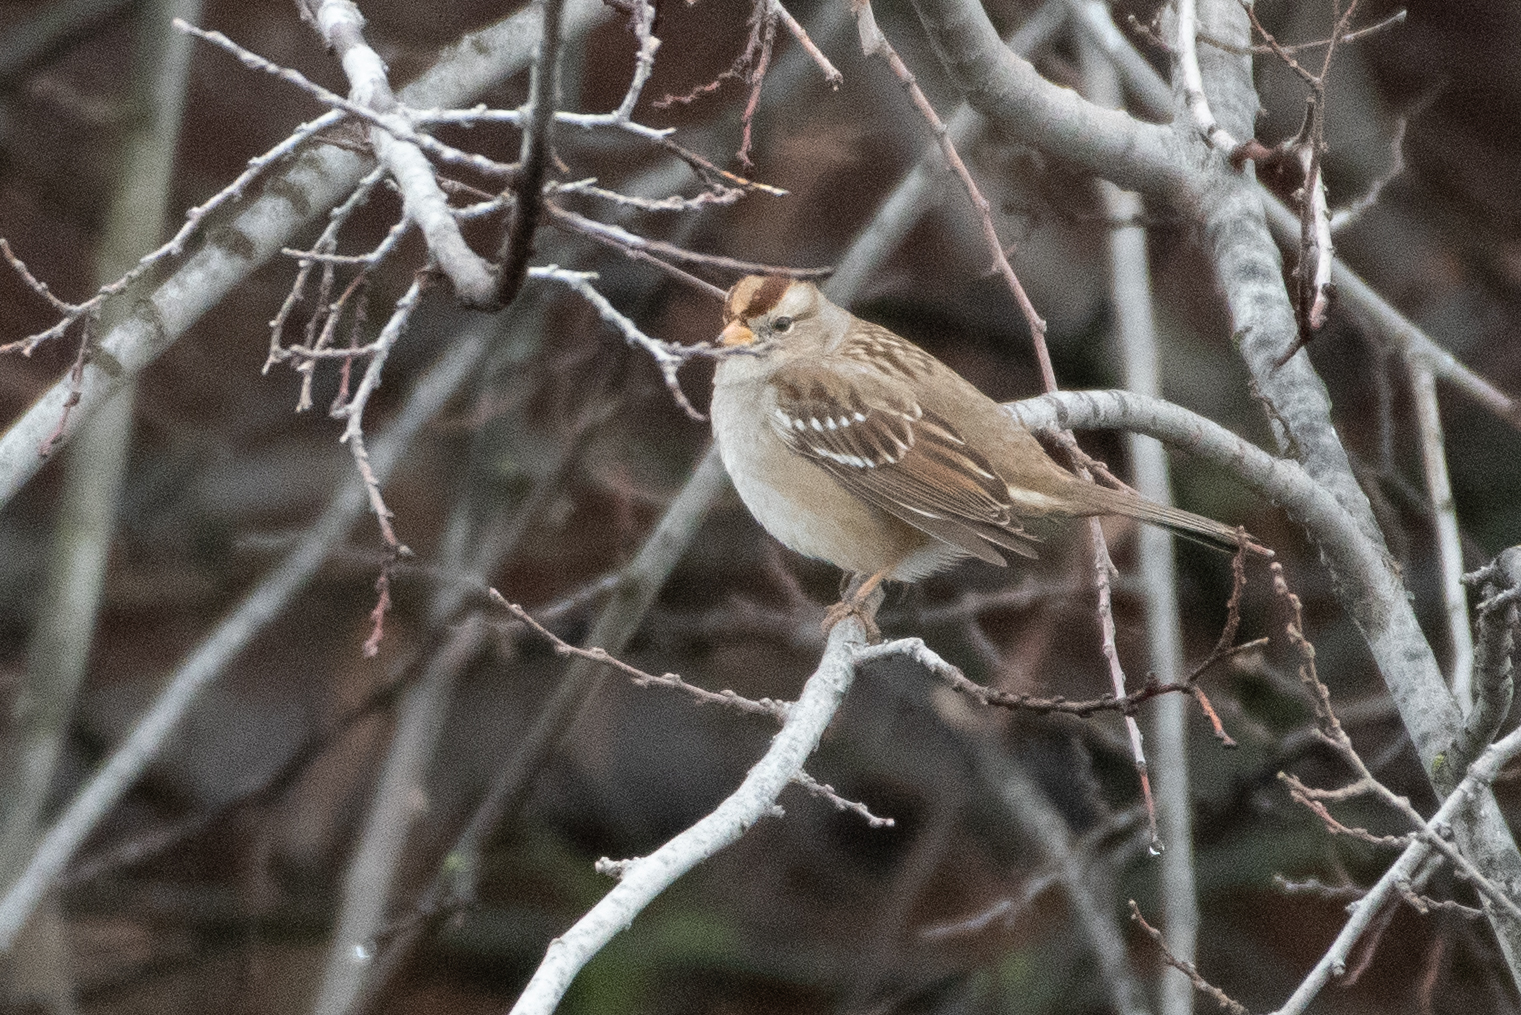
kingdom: Animalia
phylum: Chordata
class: Aves
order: Passeriformes
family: Passerellidae
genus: Zonotrichia
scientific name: Zonotrichia leucophrys
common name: White-crowned sparrow
